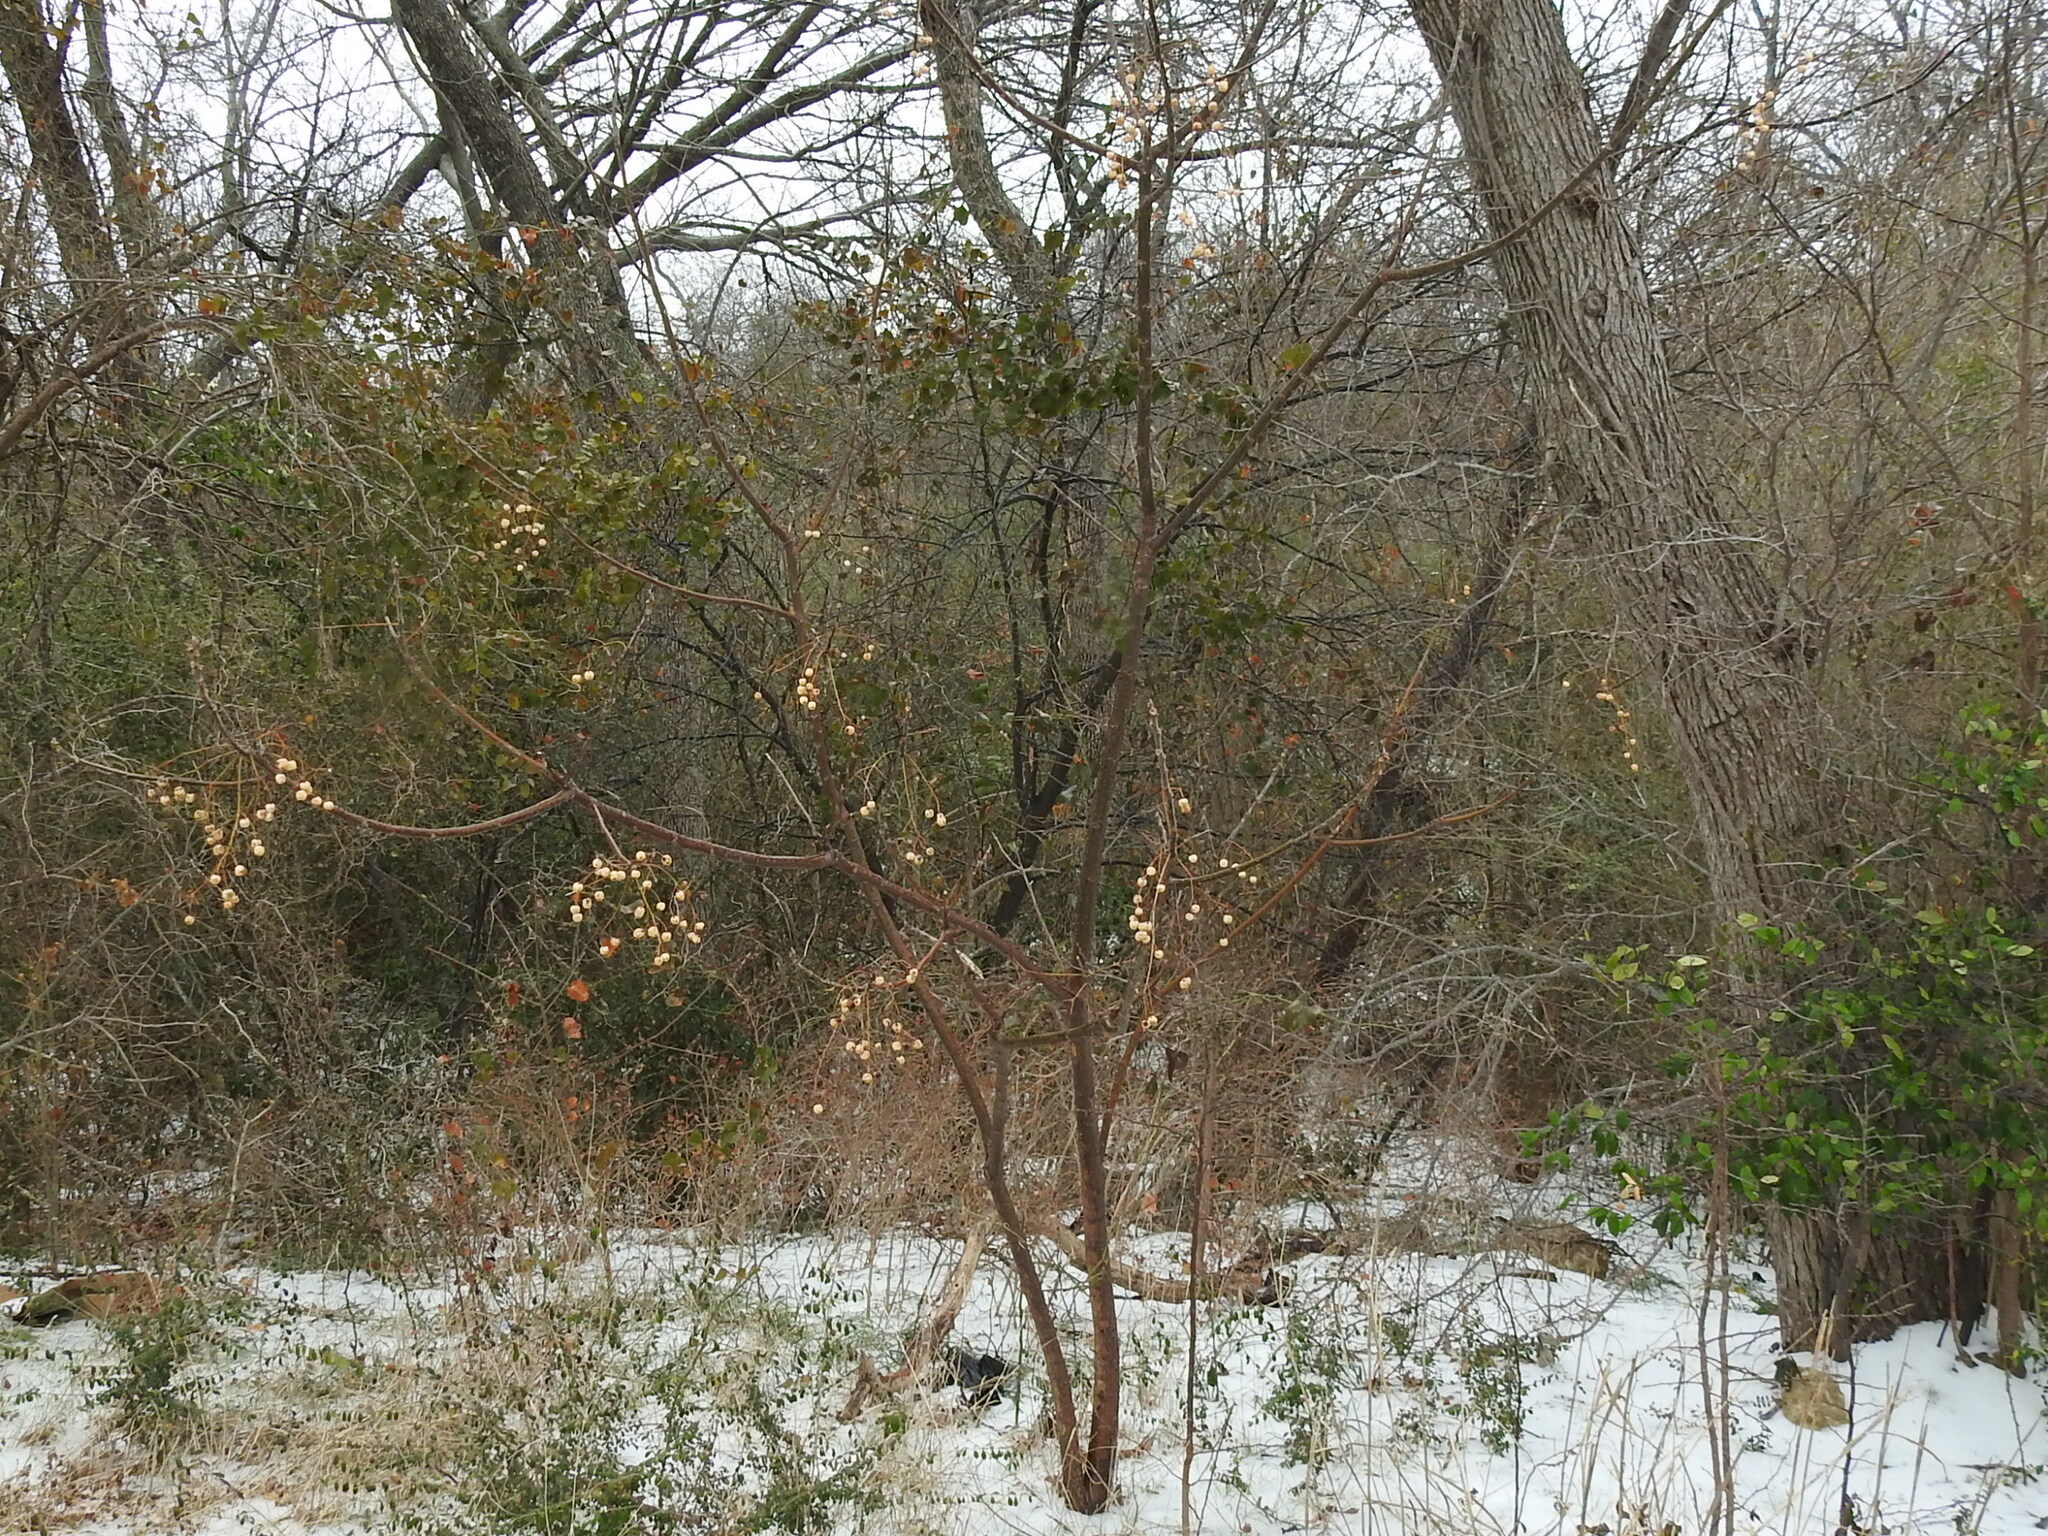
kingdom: Plantae
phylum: Tracheophyta
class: Magnoliopsida
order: Sapindales
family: Meliaceae
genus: Melia
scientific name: Melia azedarach
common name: Chinaberrytree
